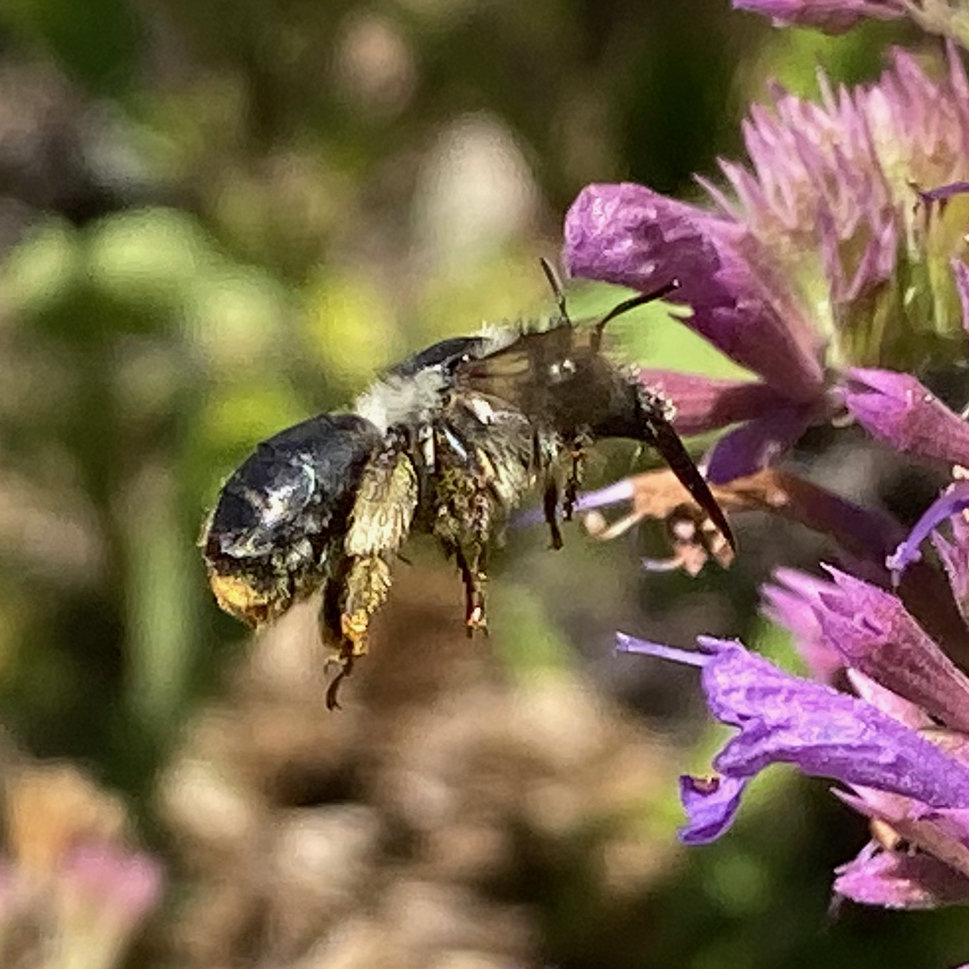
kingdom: Animalia
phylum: Arthropoda
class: Insecta
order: Hymenoptera
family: Apidae
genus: Anthophora
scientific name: Anthophora terminalis
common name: Orange-tipped wood-digger bee
